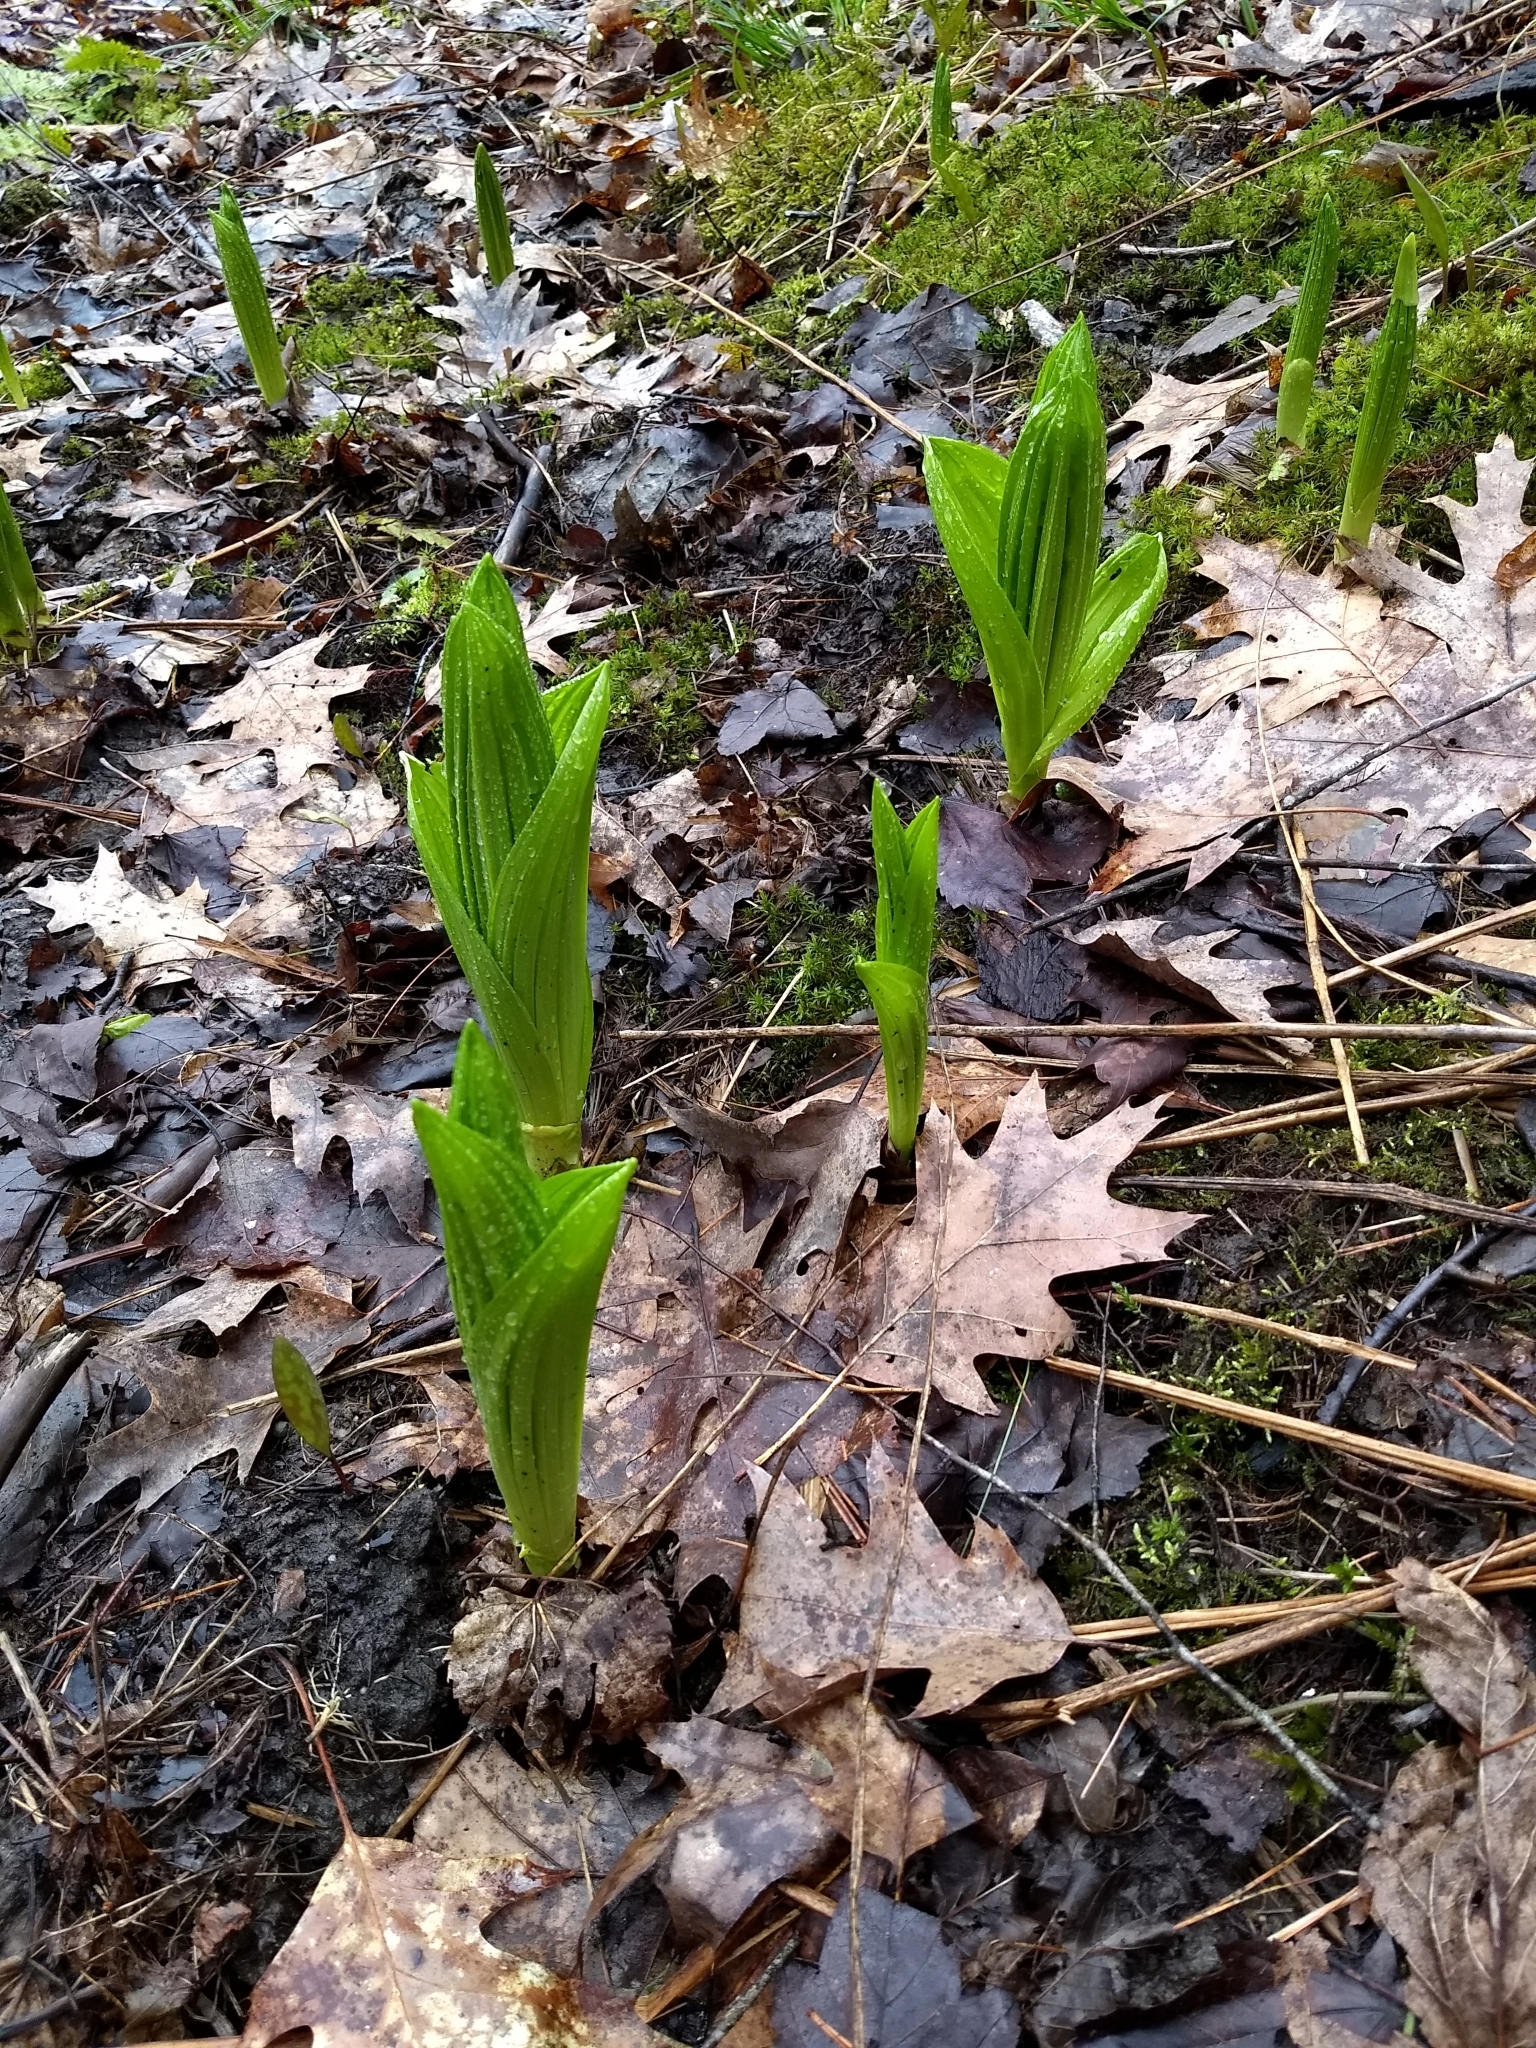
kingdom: Plantae
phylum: Tracheophyta
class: Liliopsida
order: Liliales
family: Melanthiaceae
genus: Veratrum
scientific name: Veratrum viride
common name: American false hellebore
